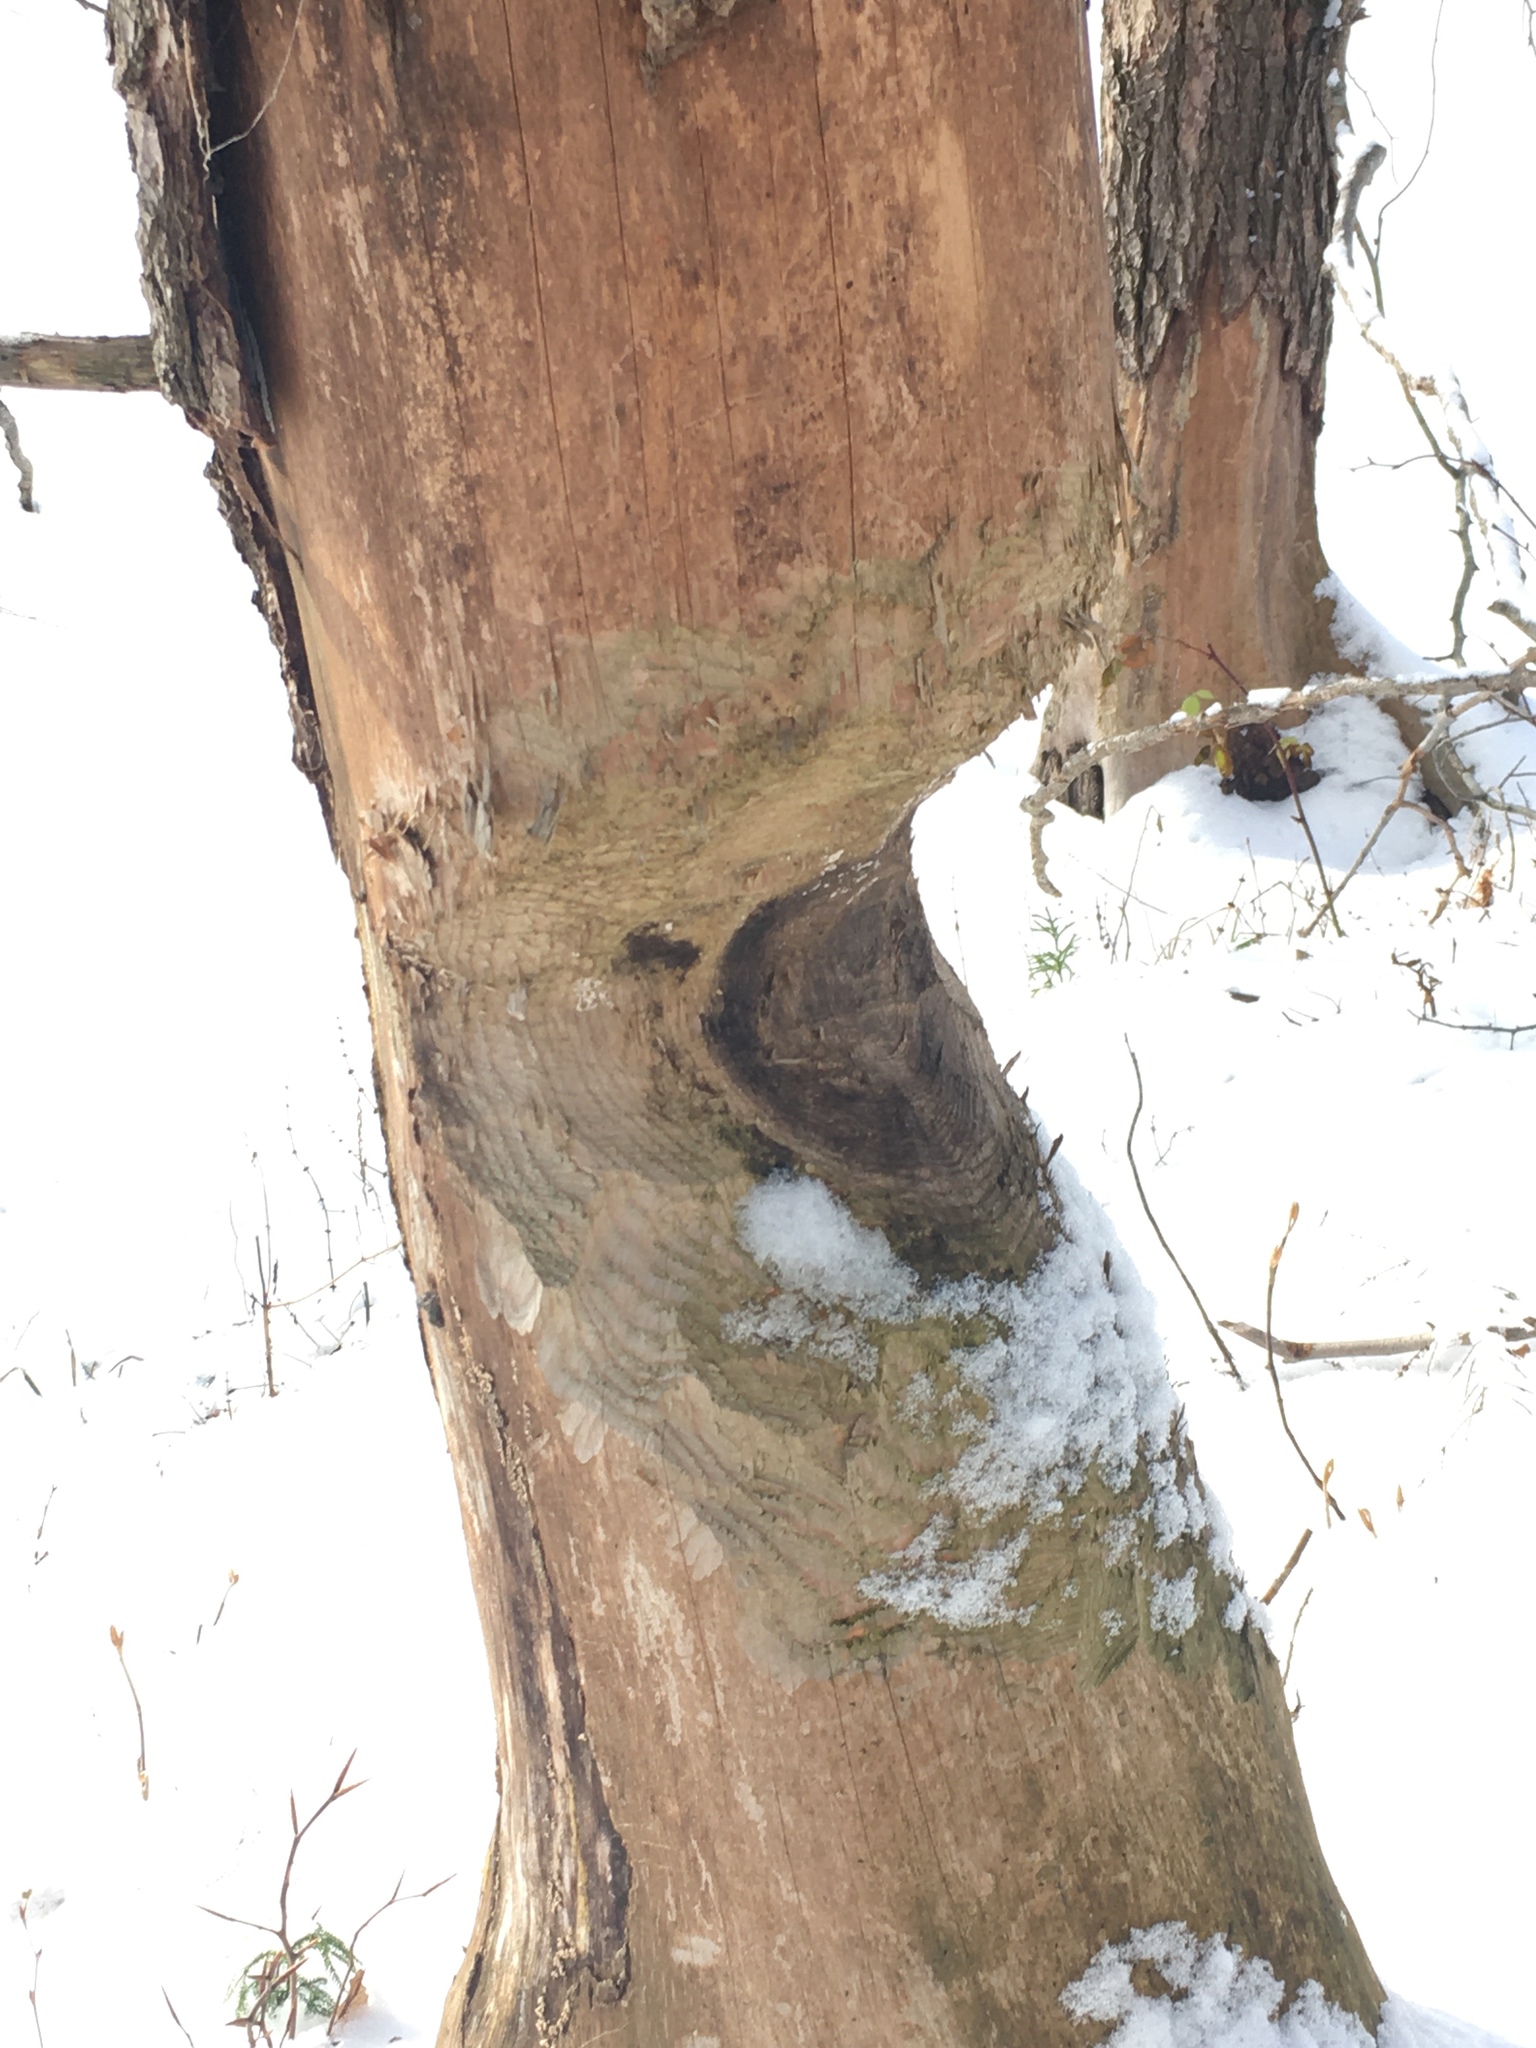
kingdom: Animalia
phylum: Chordata
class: Mammalia
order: Rodentia
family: Castoridae
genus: Castor
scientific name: Castor canadensis
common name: American beaver
